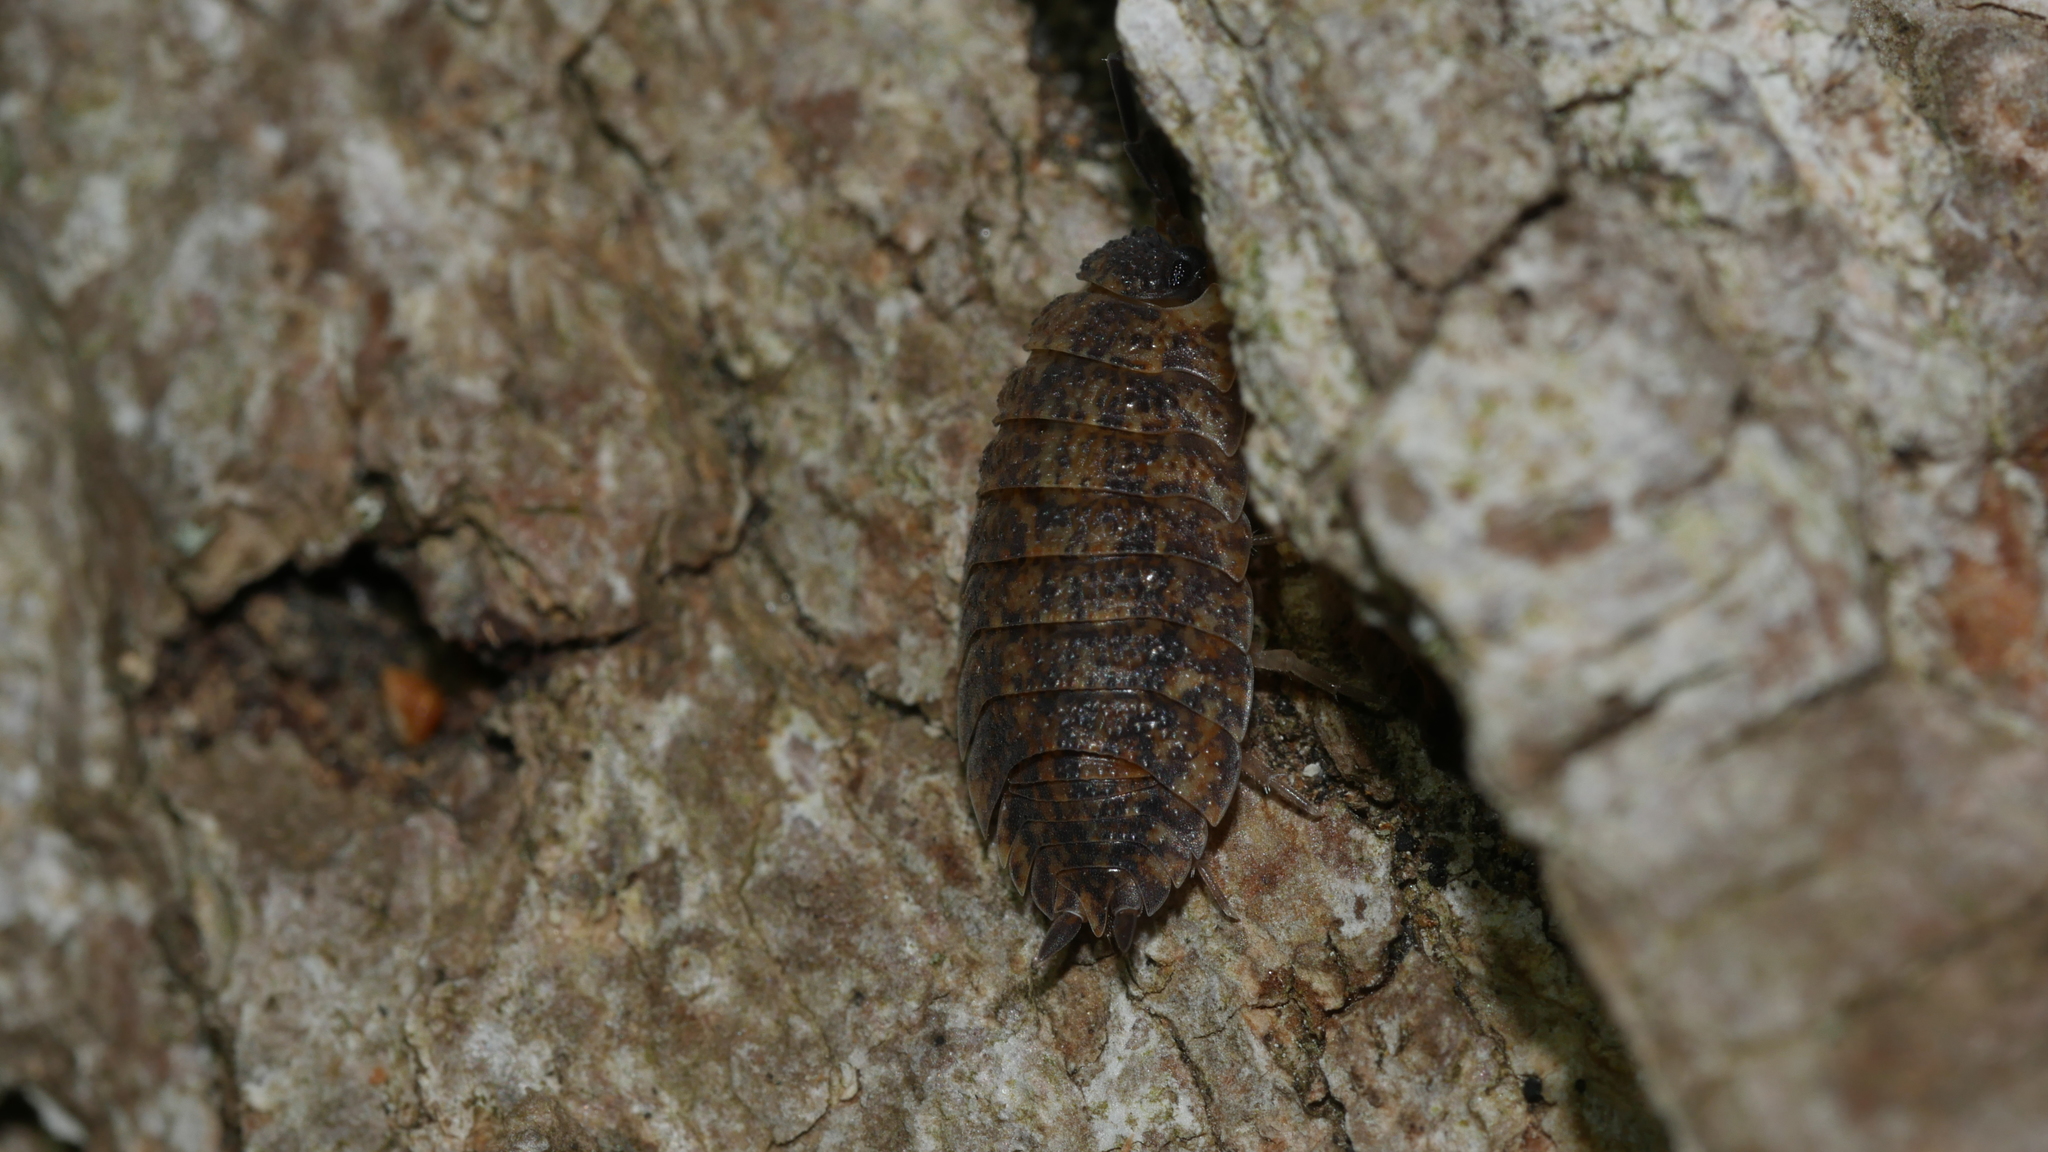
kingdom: Animalia
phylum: Arthropoda
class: Malacostraca
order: Isopoda
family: Porcellionidae
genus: Porcellio
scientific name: Porcellio scaber
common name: Common rough woodlouse
